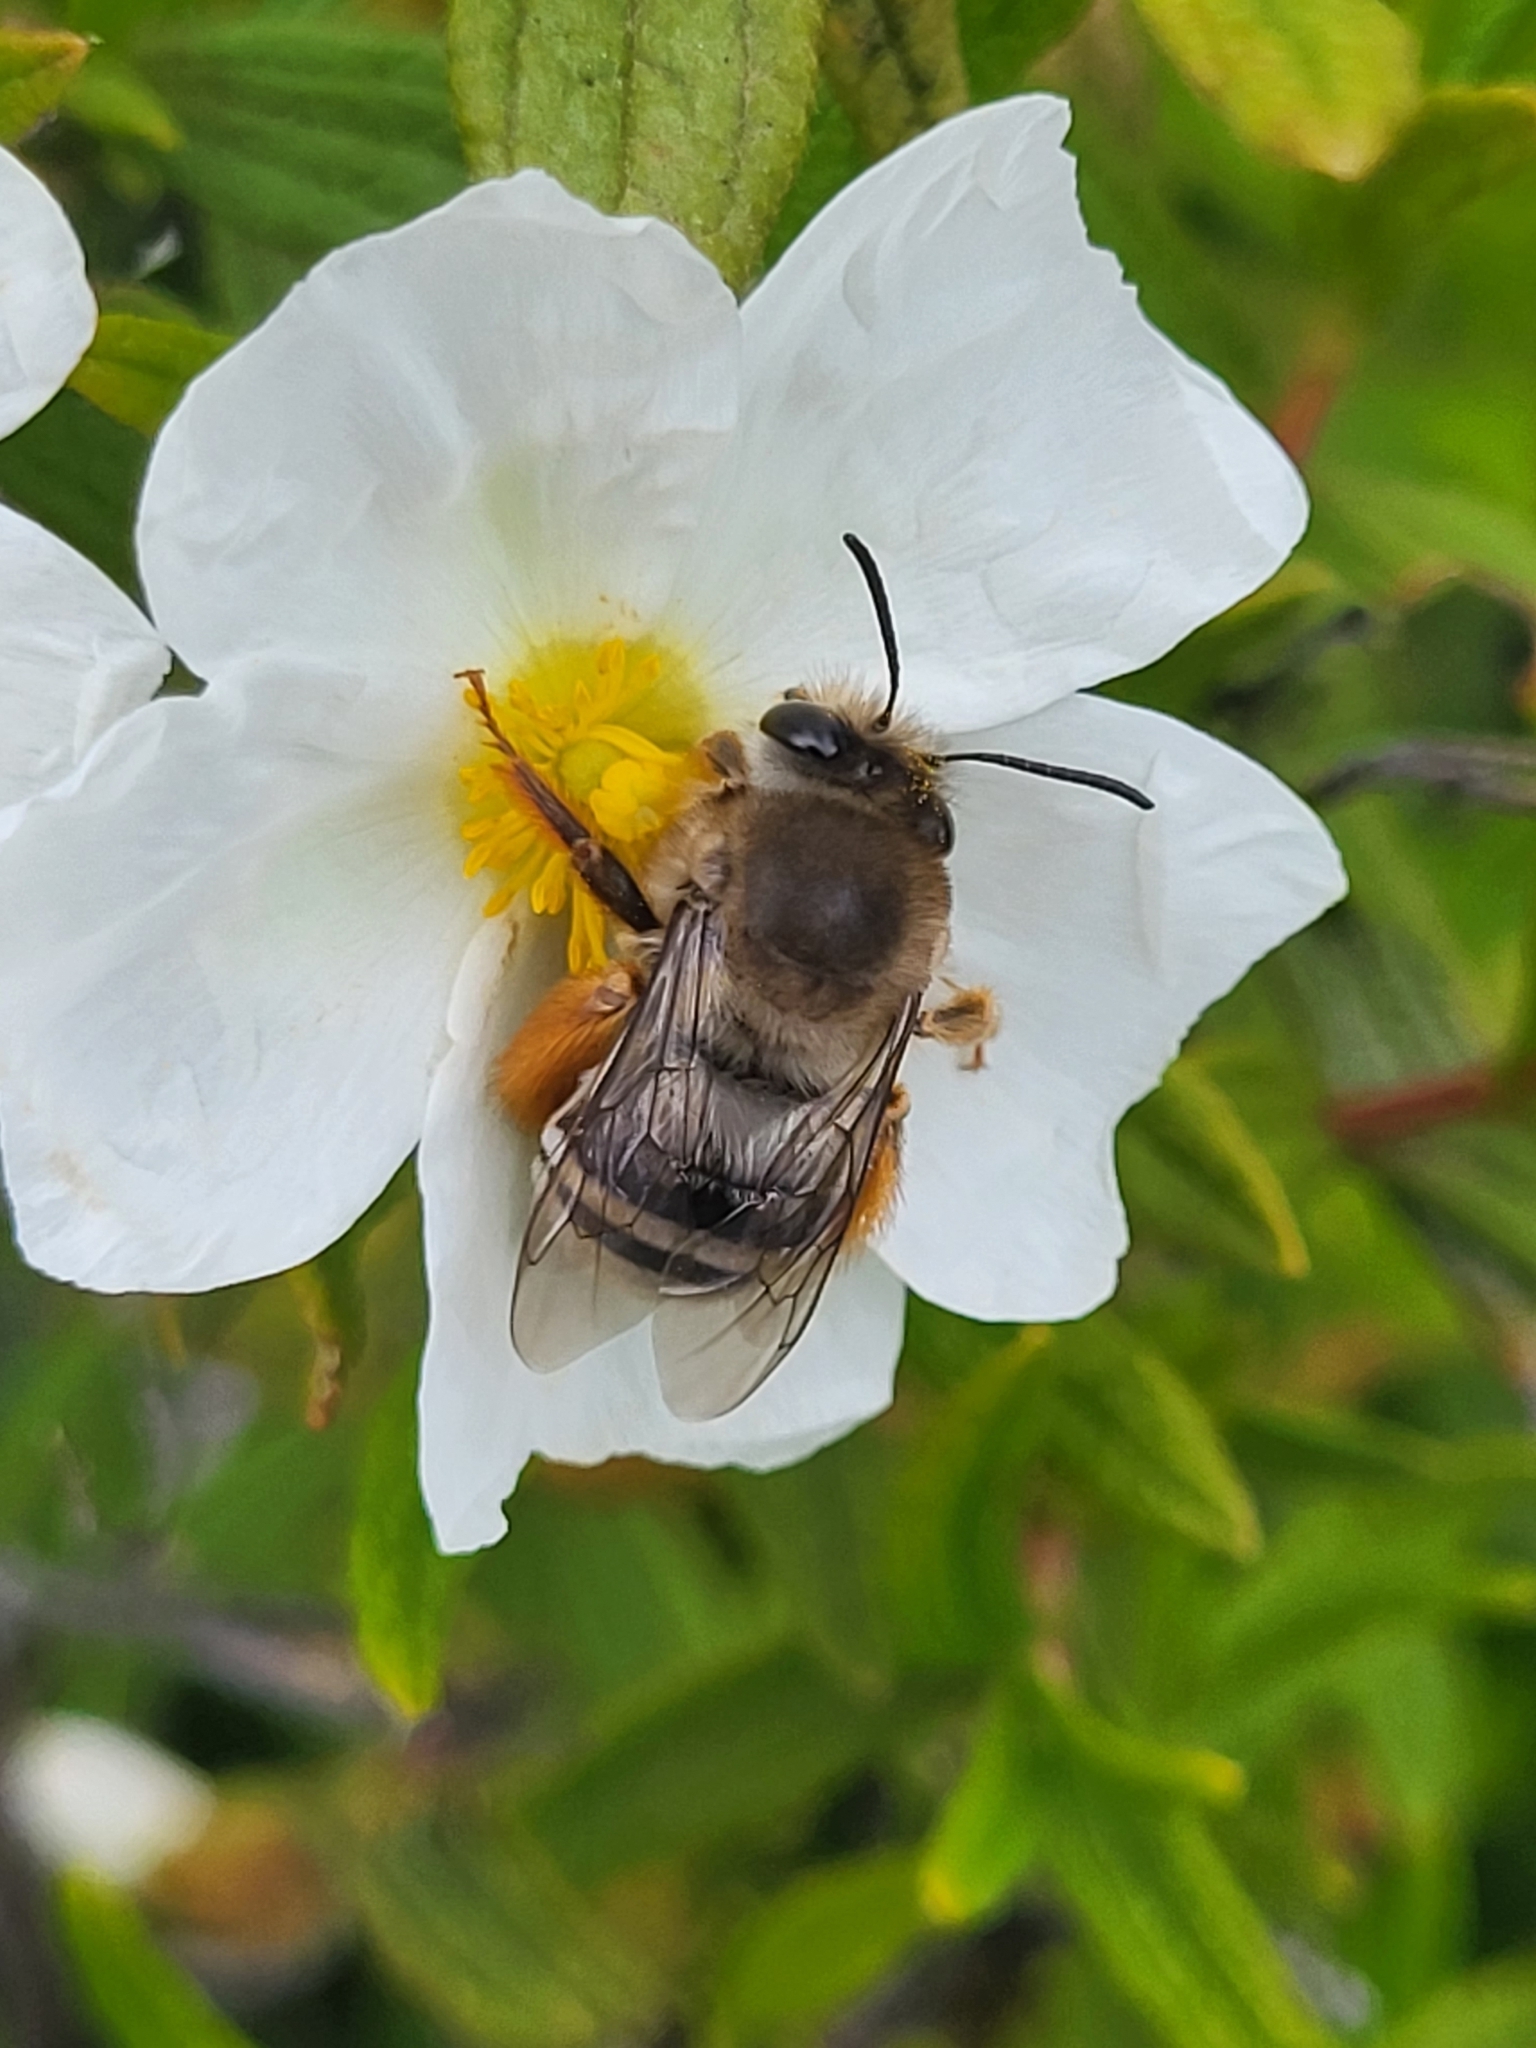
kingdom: Animalia
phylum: Arthropoda
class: Insecta
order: Hymenoptera
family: Apidae
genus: Eucera
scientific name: Eucera gracilipes
